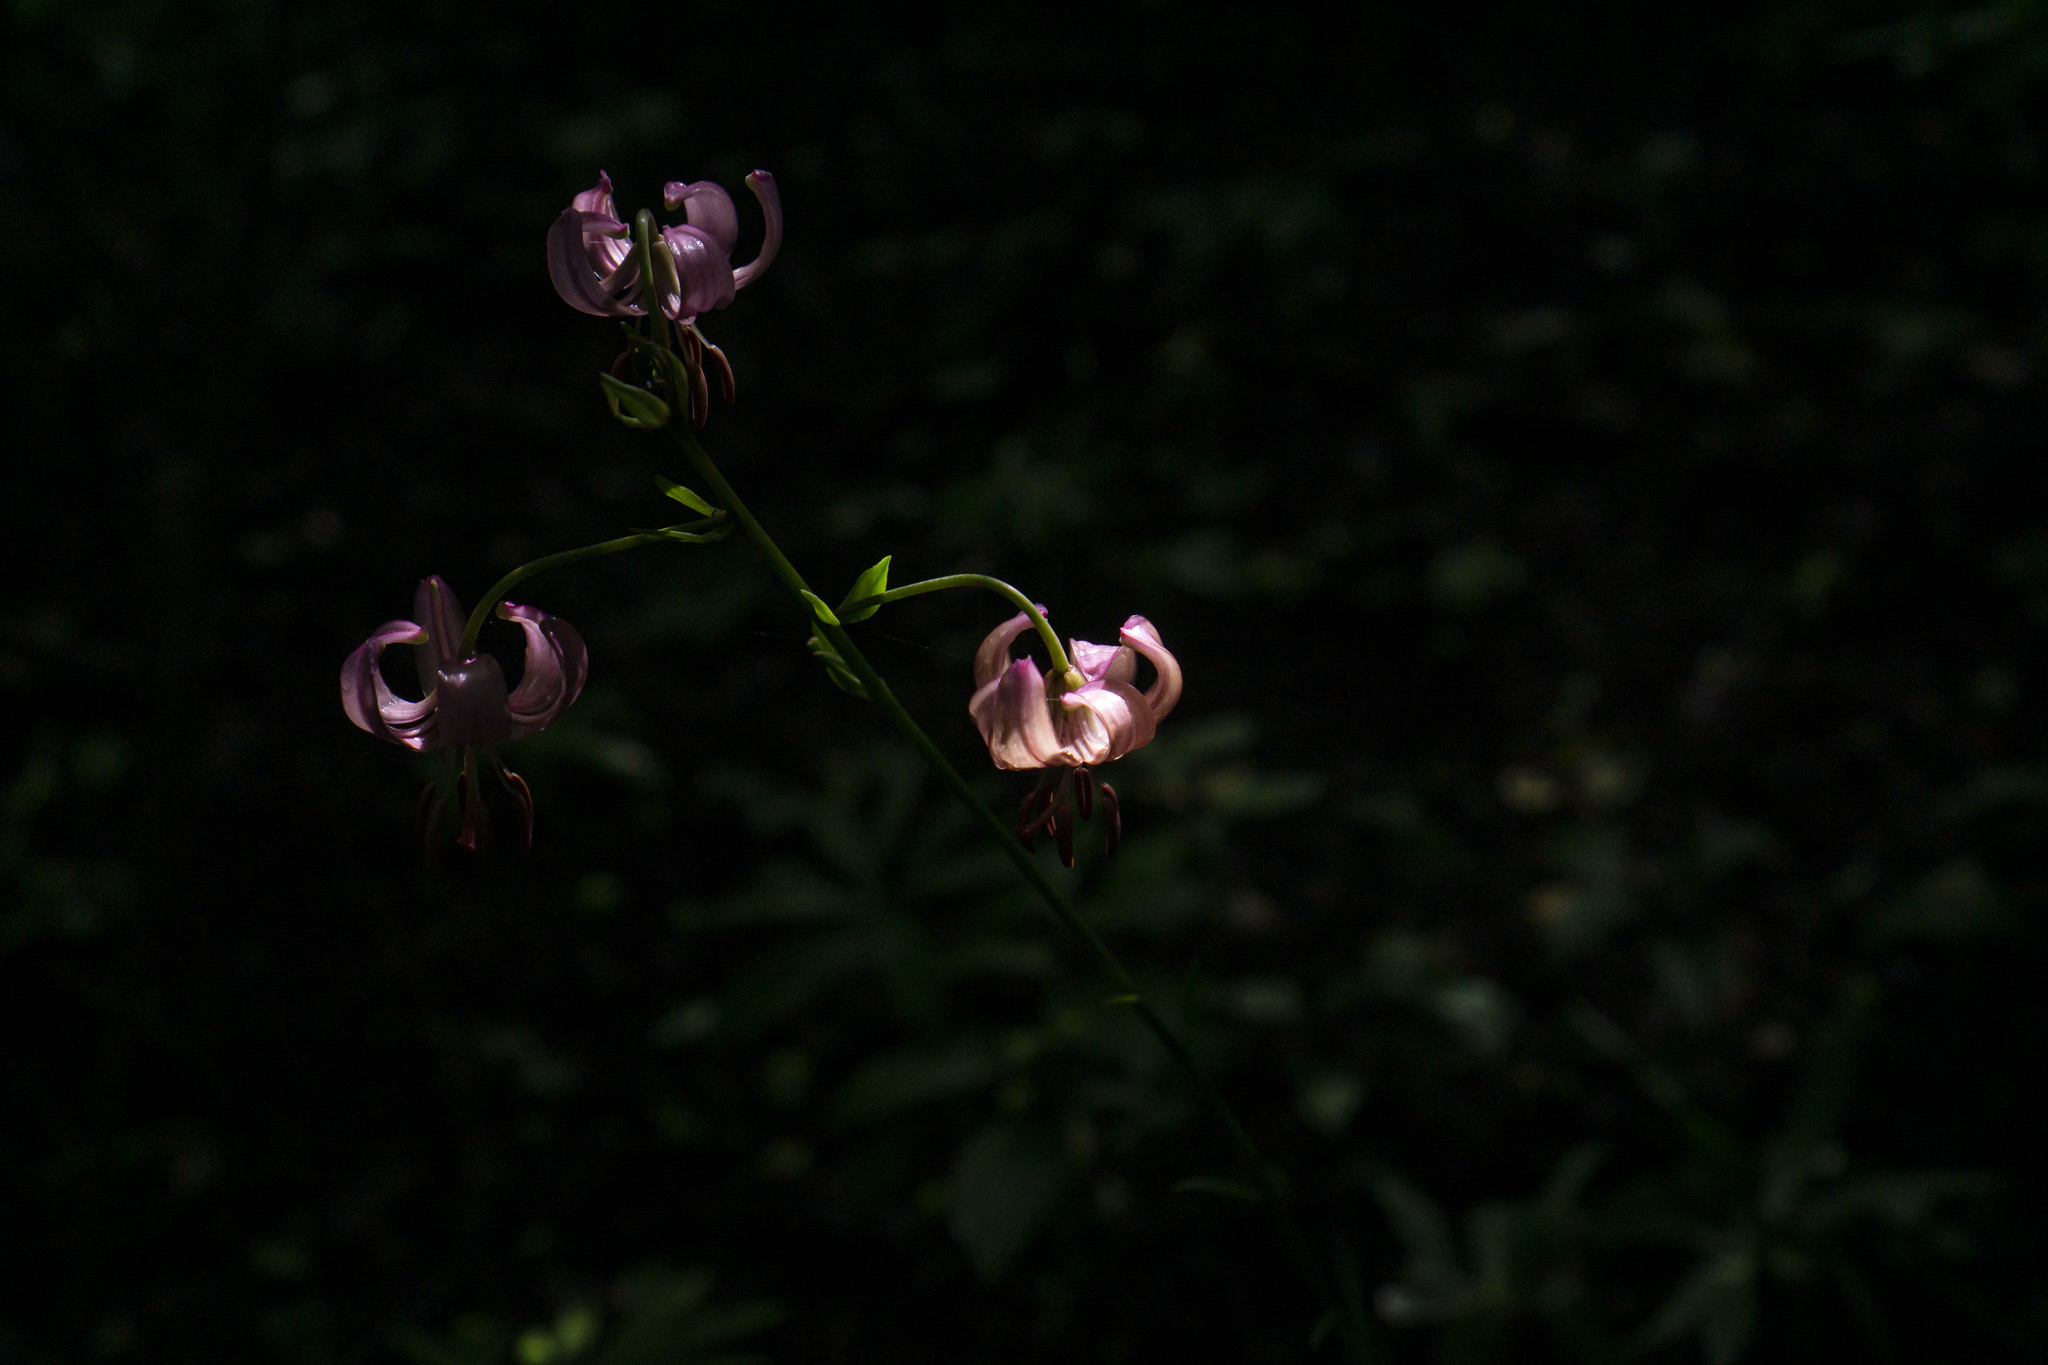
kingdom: Plantae
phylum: Tracheophyta
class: Liliopsida
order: Liliales
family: Liliaceae
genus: Lilium
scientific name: Lilium martagon
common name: Martagon lily
